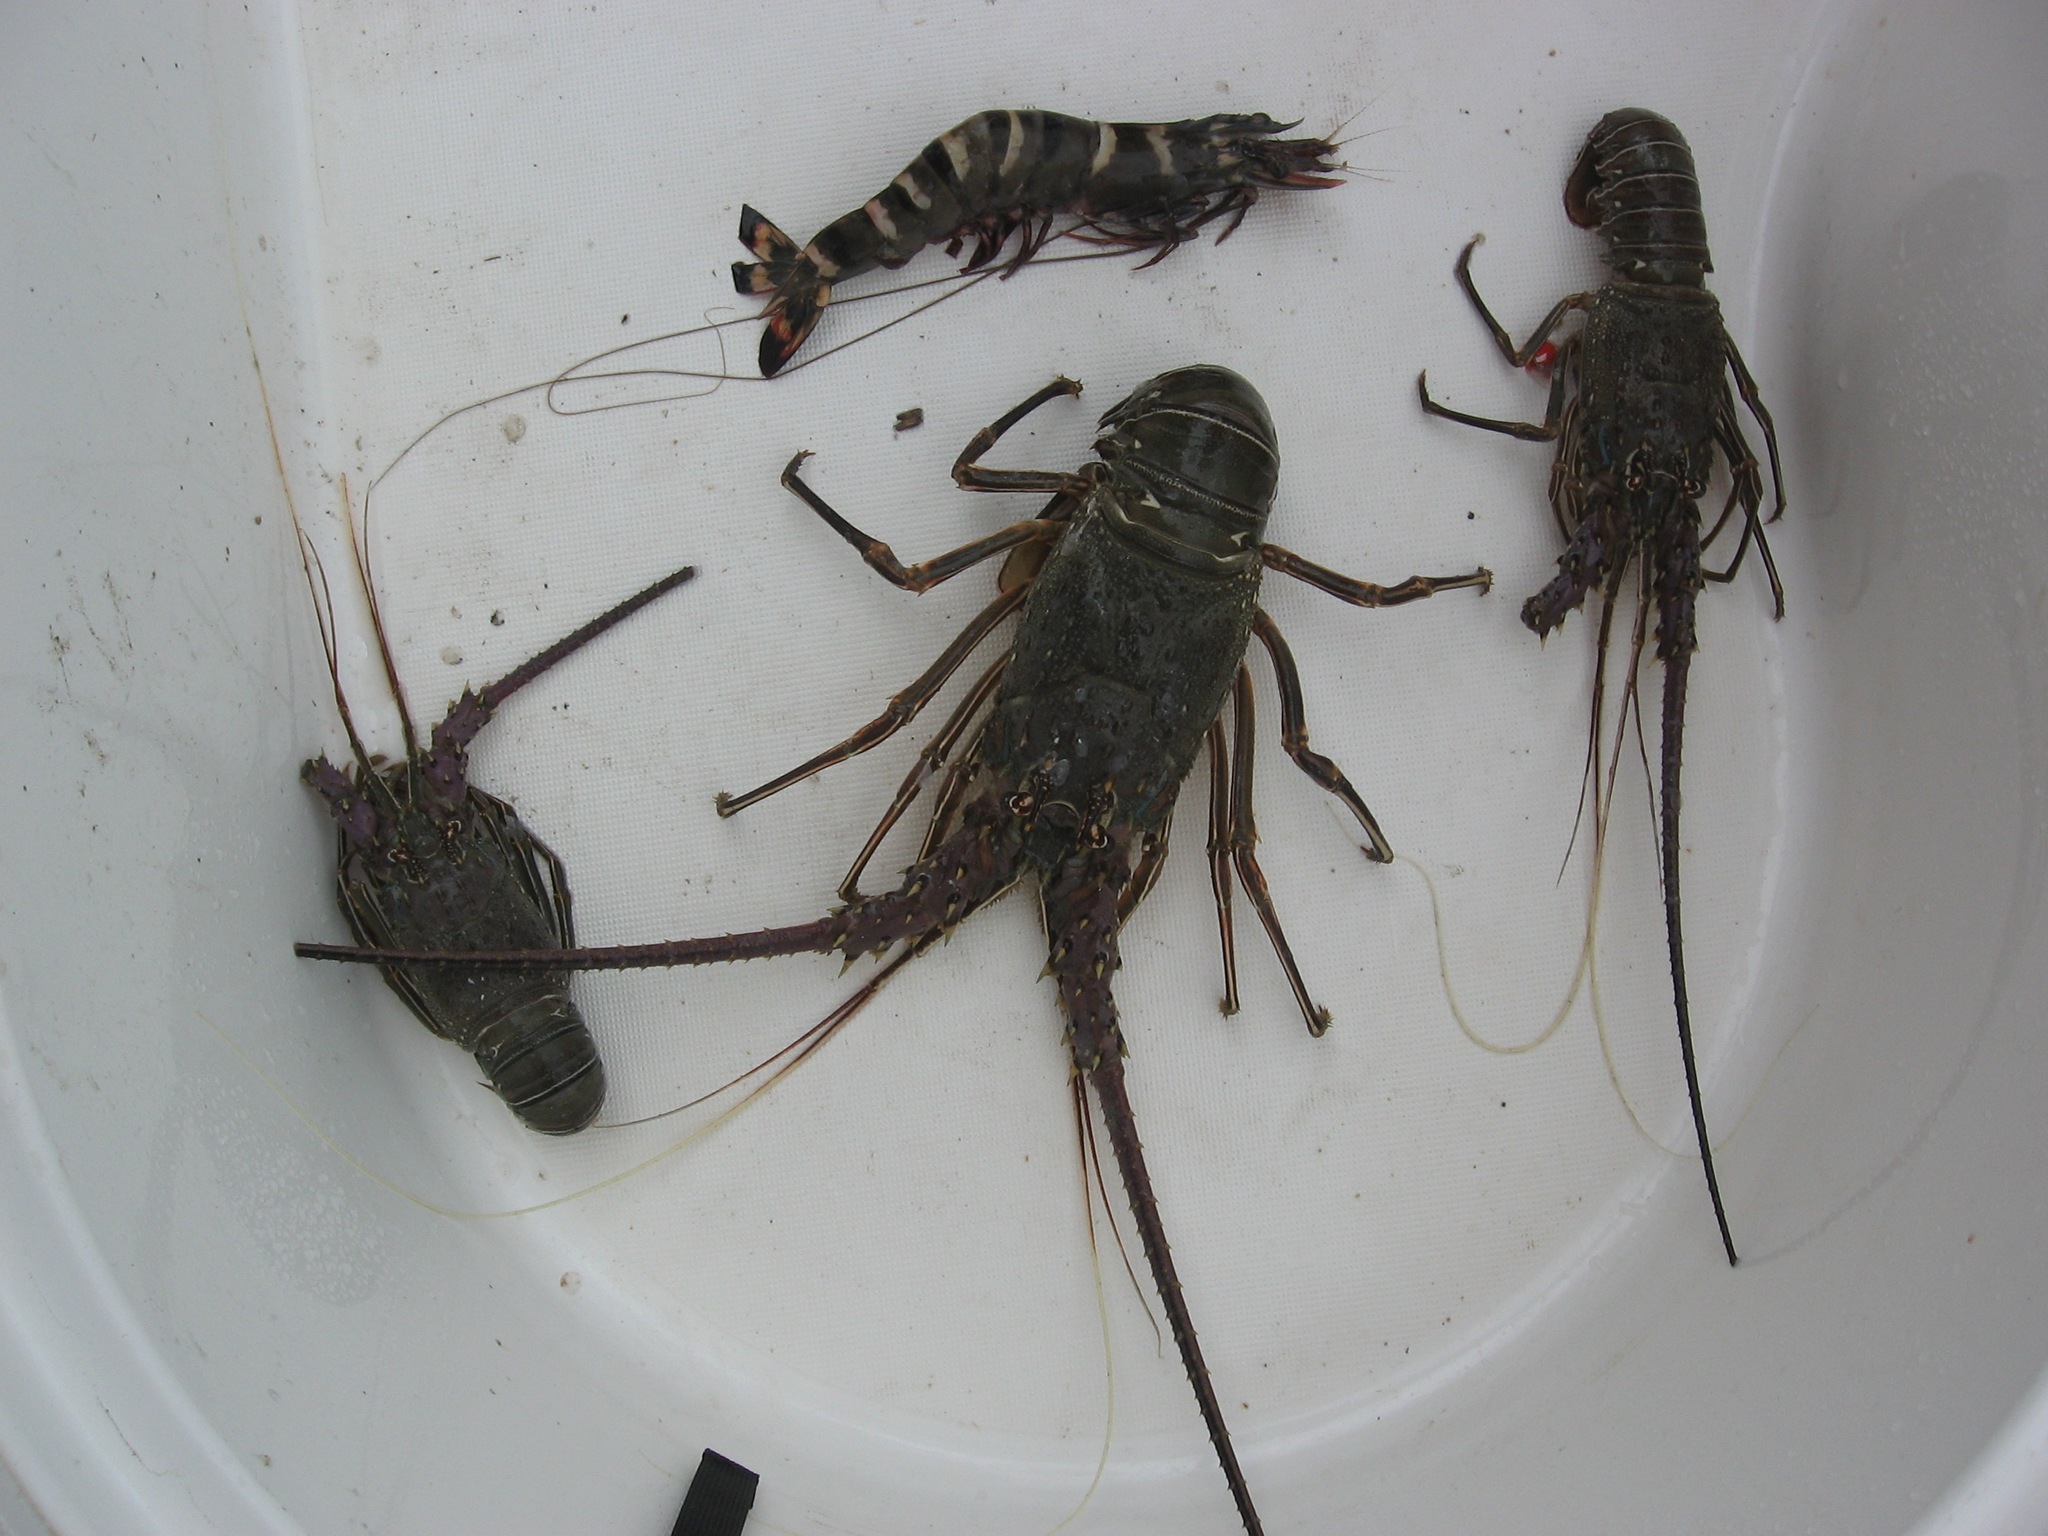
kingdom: Animalia
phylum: Arthropoda
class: Malacostraca
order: Decapoda
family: Palinuridae
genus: Panulirus
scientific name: Panulirus regius
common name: Green lobster
